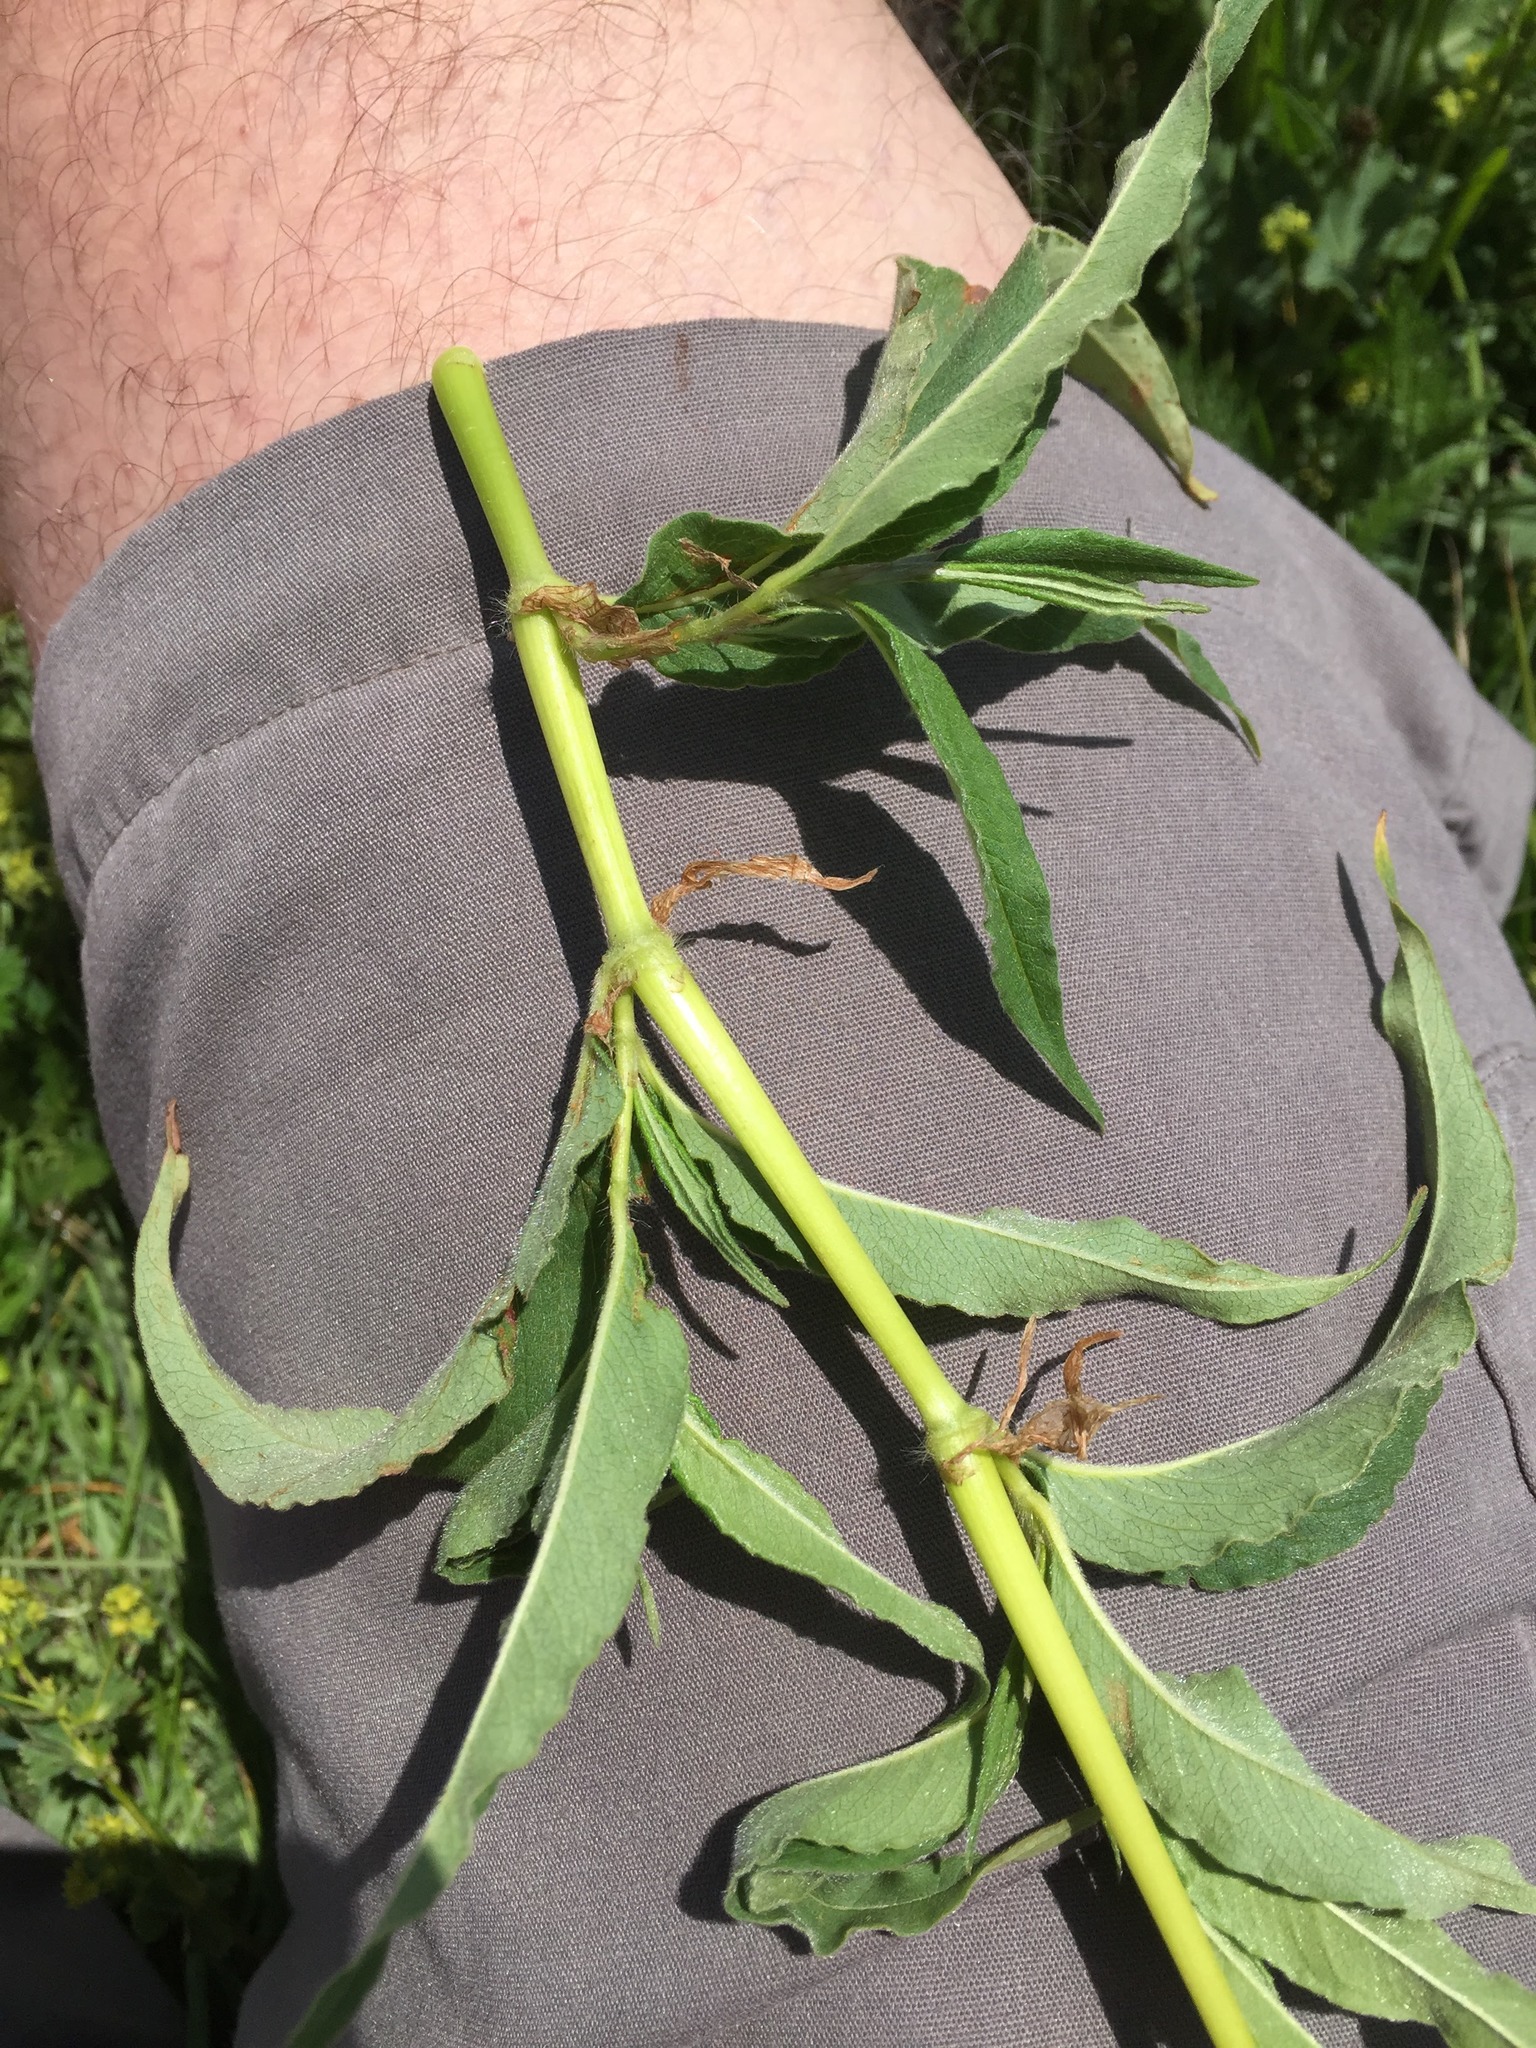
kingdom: Plantae
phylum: Tracheophyta
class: Magnoliopsida
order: Caryophyllales
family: Polygonaceae
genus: Koenigia
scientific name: Koenigia alpina
